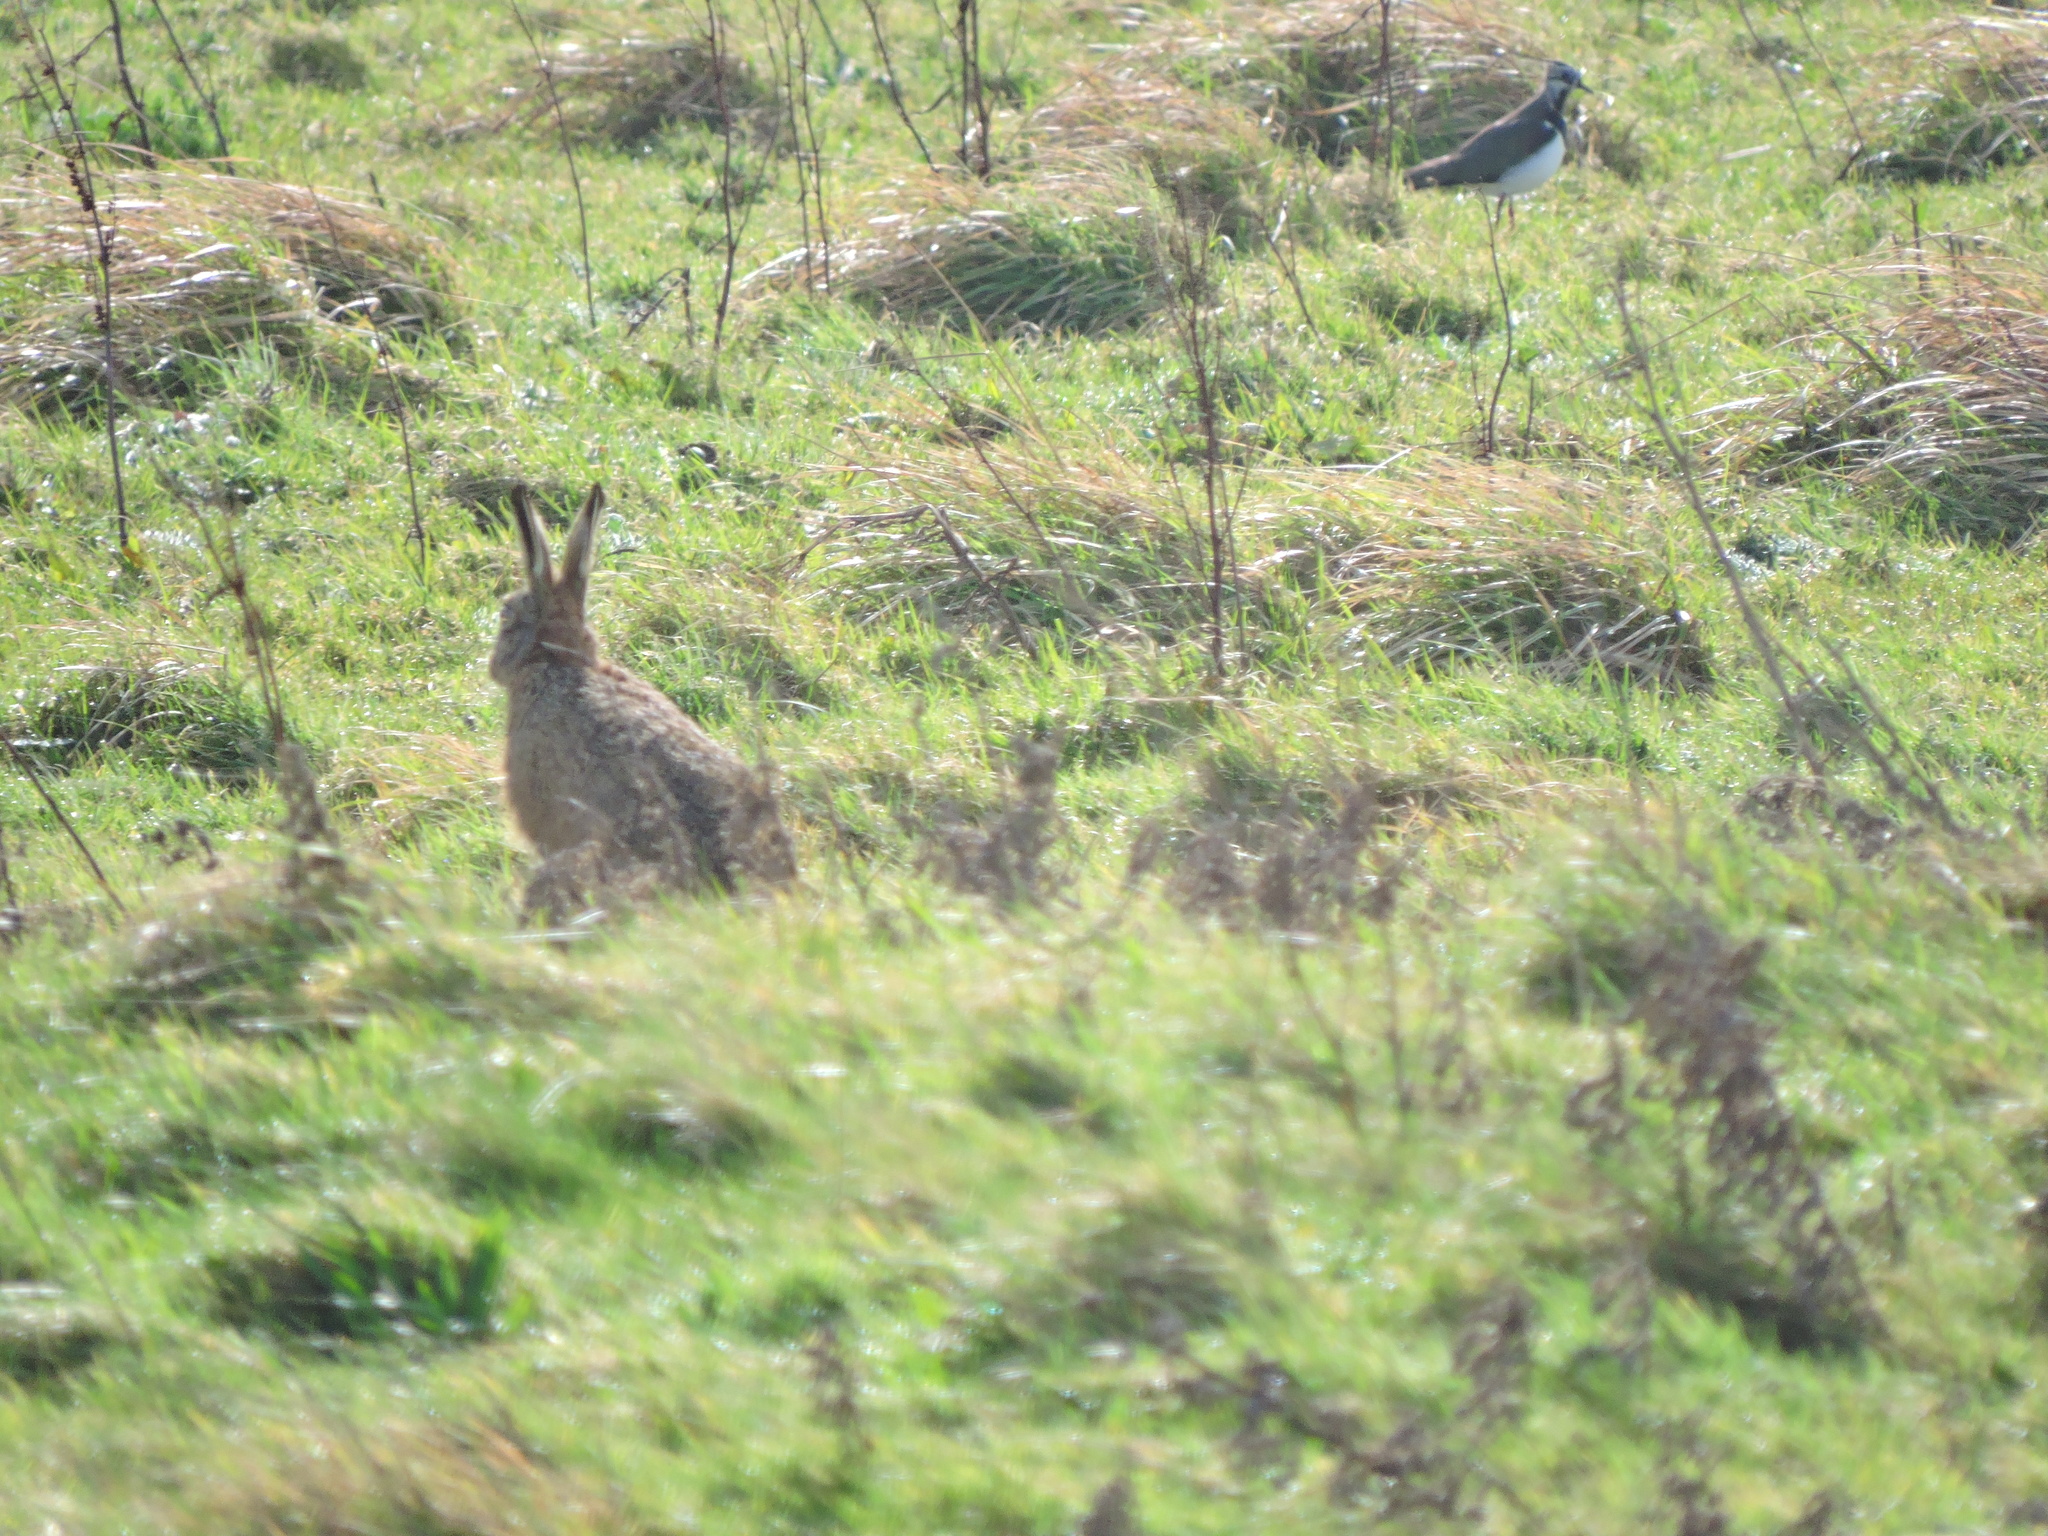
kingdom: Animalia
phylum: Chordata
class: Aves
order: Charadriiformes
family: Charadriidae
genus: Vanellus
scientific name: Vanellus vanellus
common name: Northern lapwing
